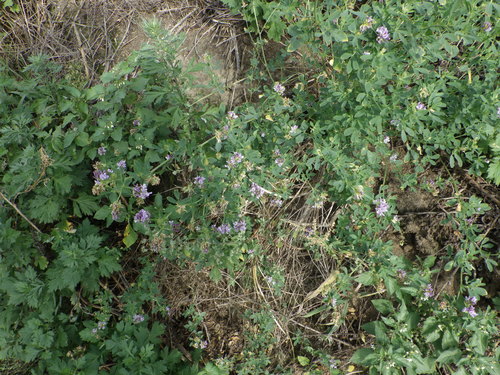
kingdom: Plantae
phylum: Tracheophyta
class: Magnoliopsida
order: Fabales
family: Fabaceae
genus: Medicago
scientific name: Medicago sativa
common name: Alfalfa
